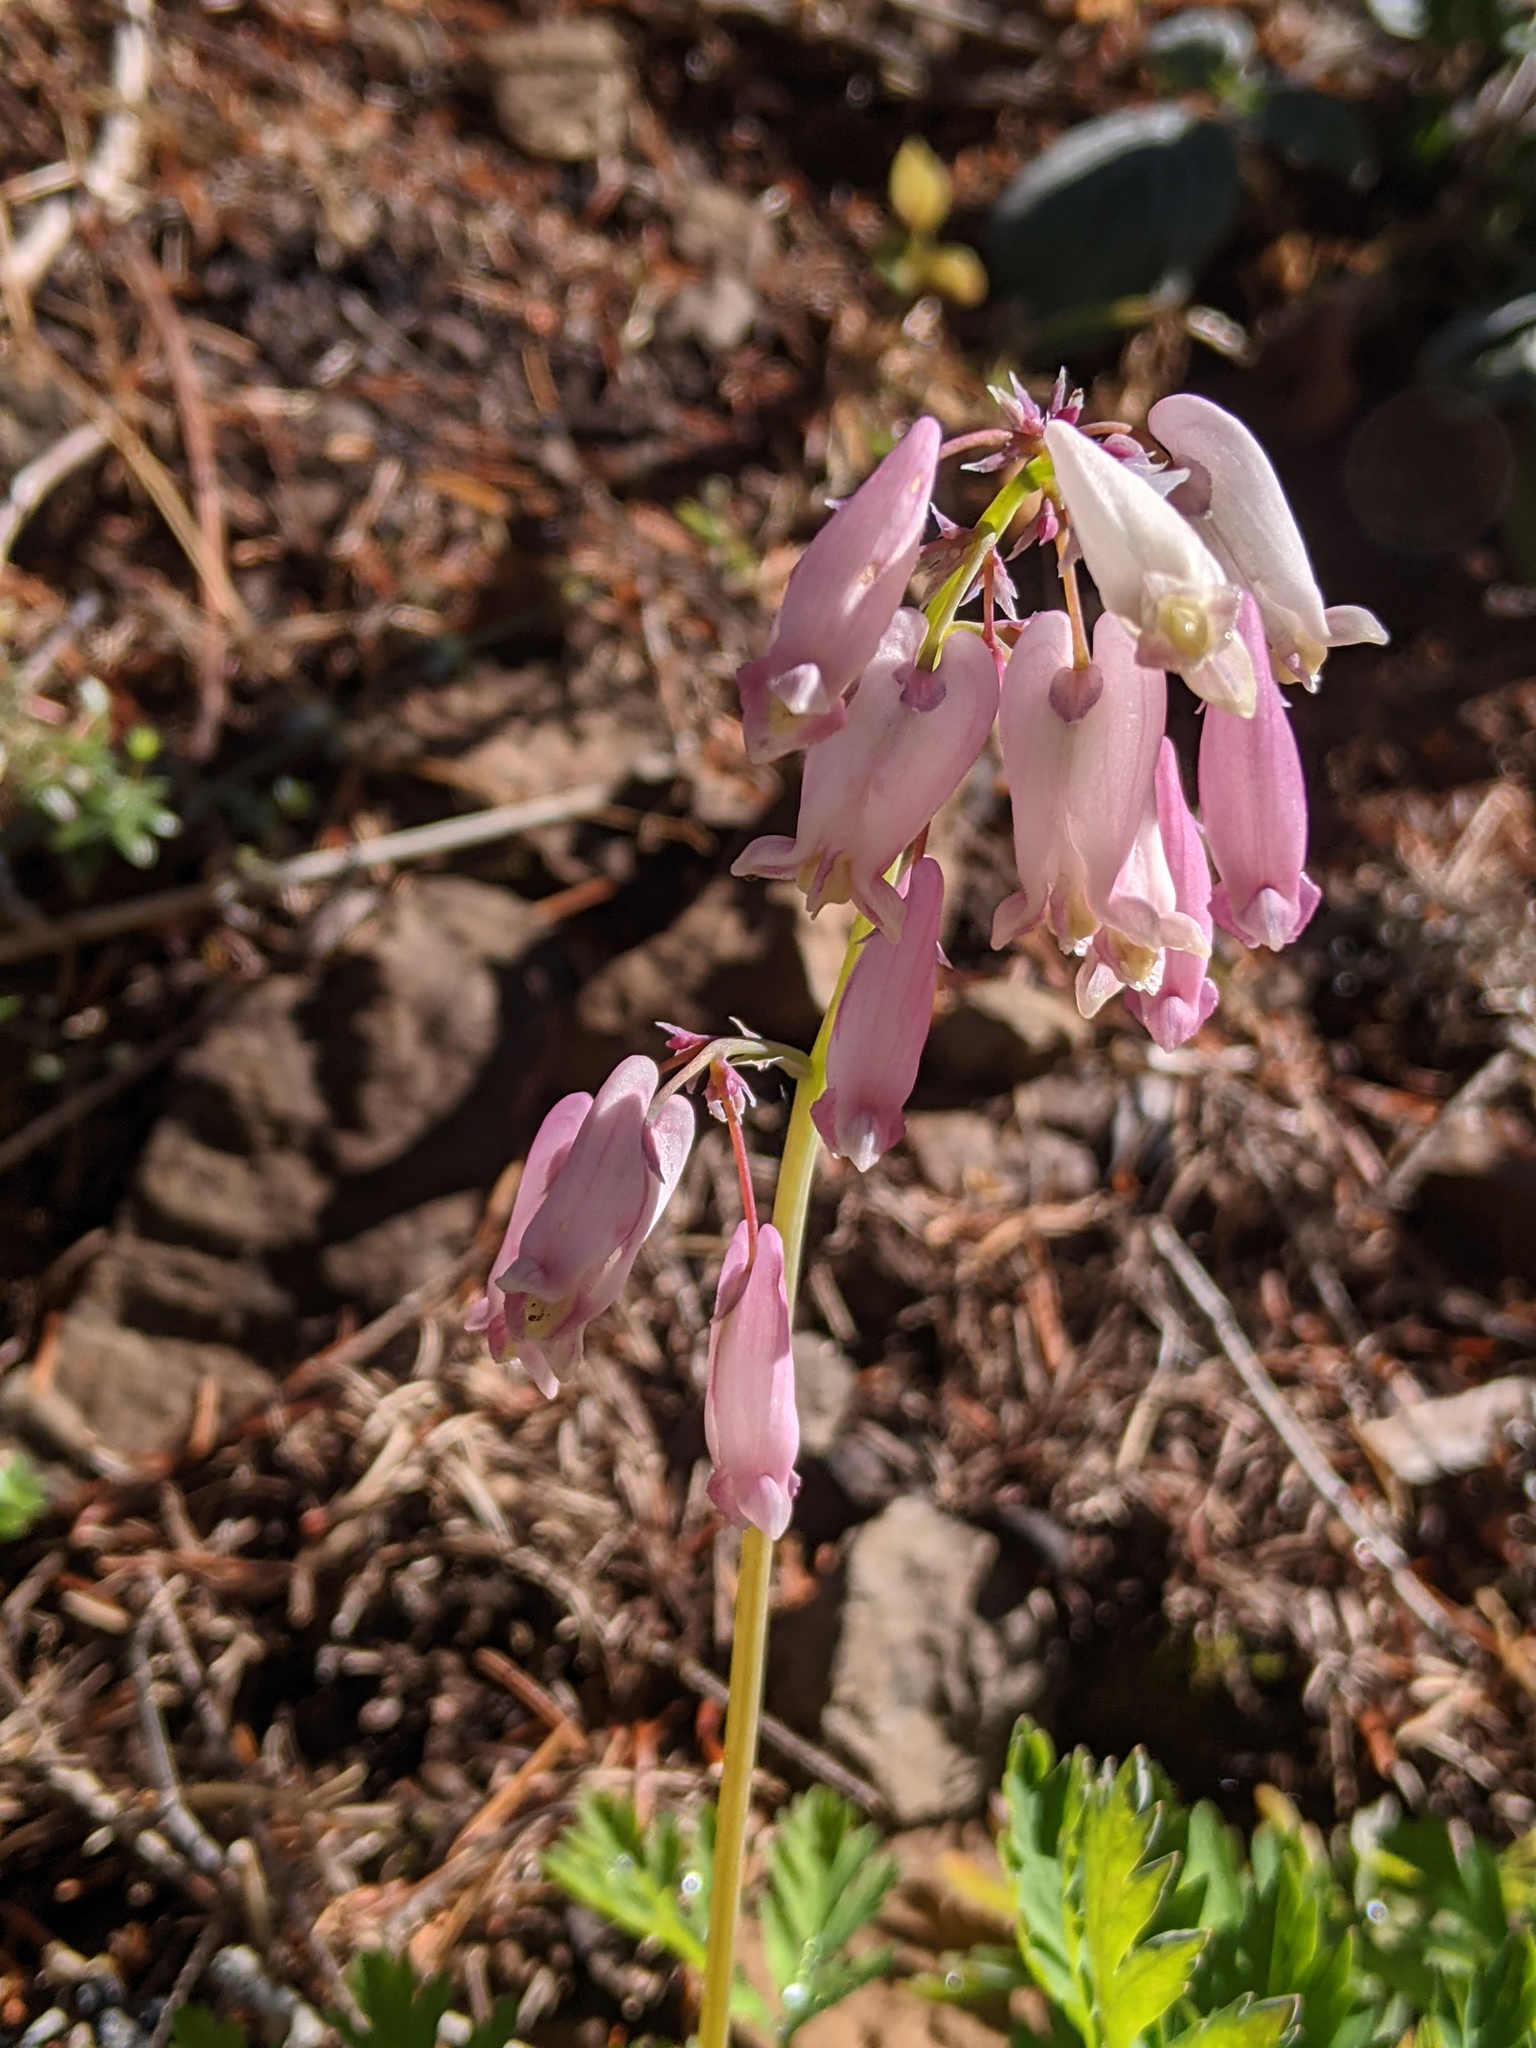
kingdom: Plantae
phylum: Tracheophyta
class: Magnoliopsida
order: Ranunculales
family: Papaveraceae
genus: Dicentra
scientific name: Dicentra formosa
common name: Bleeding-heart
